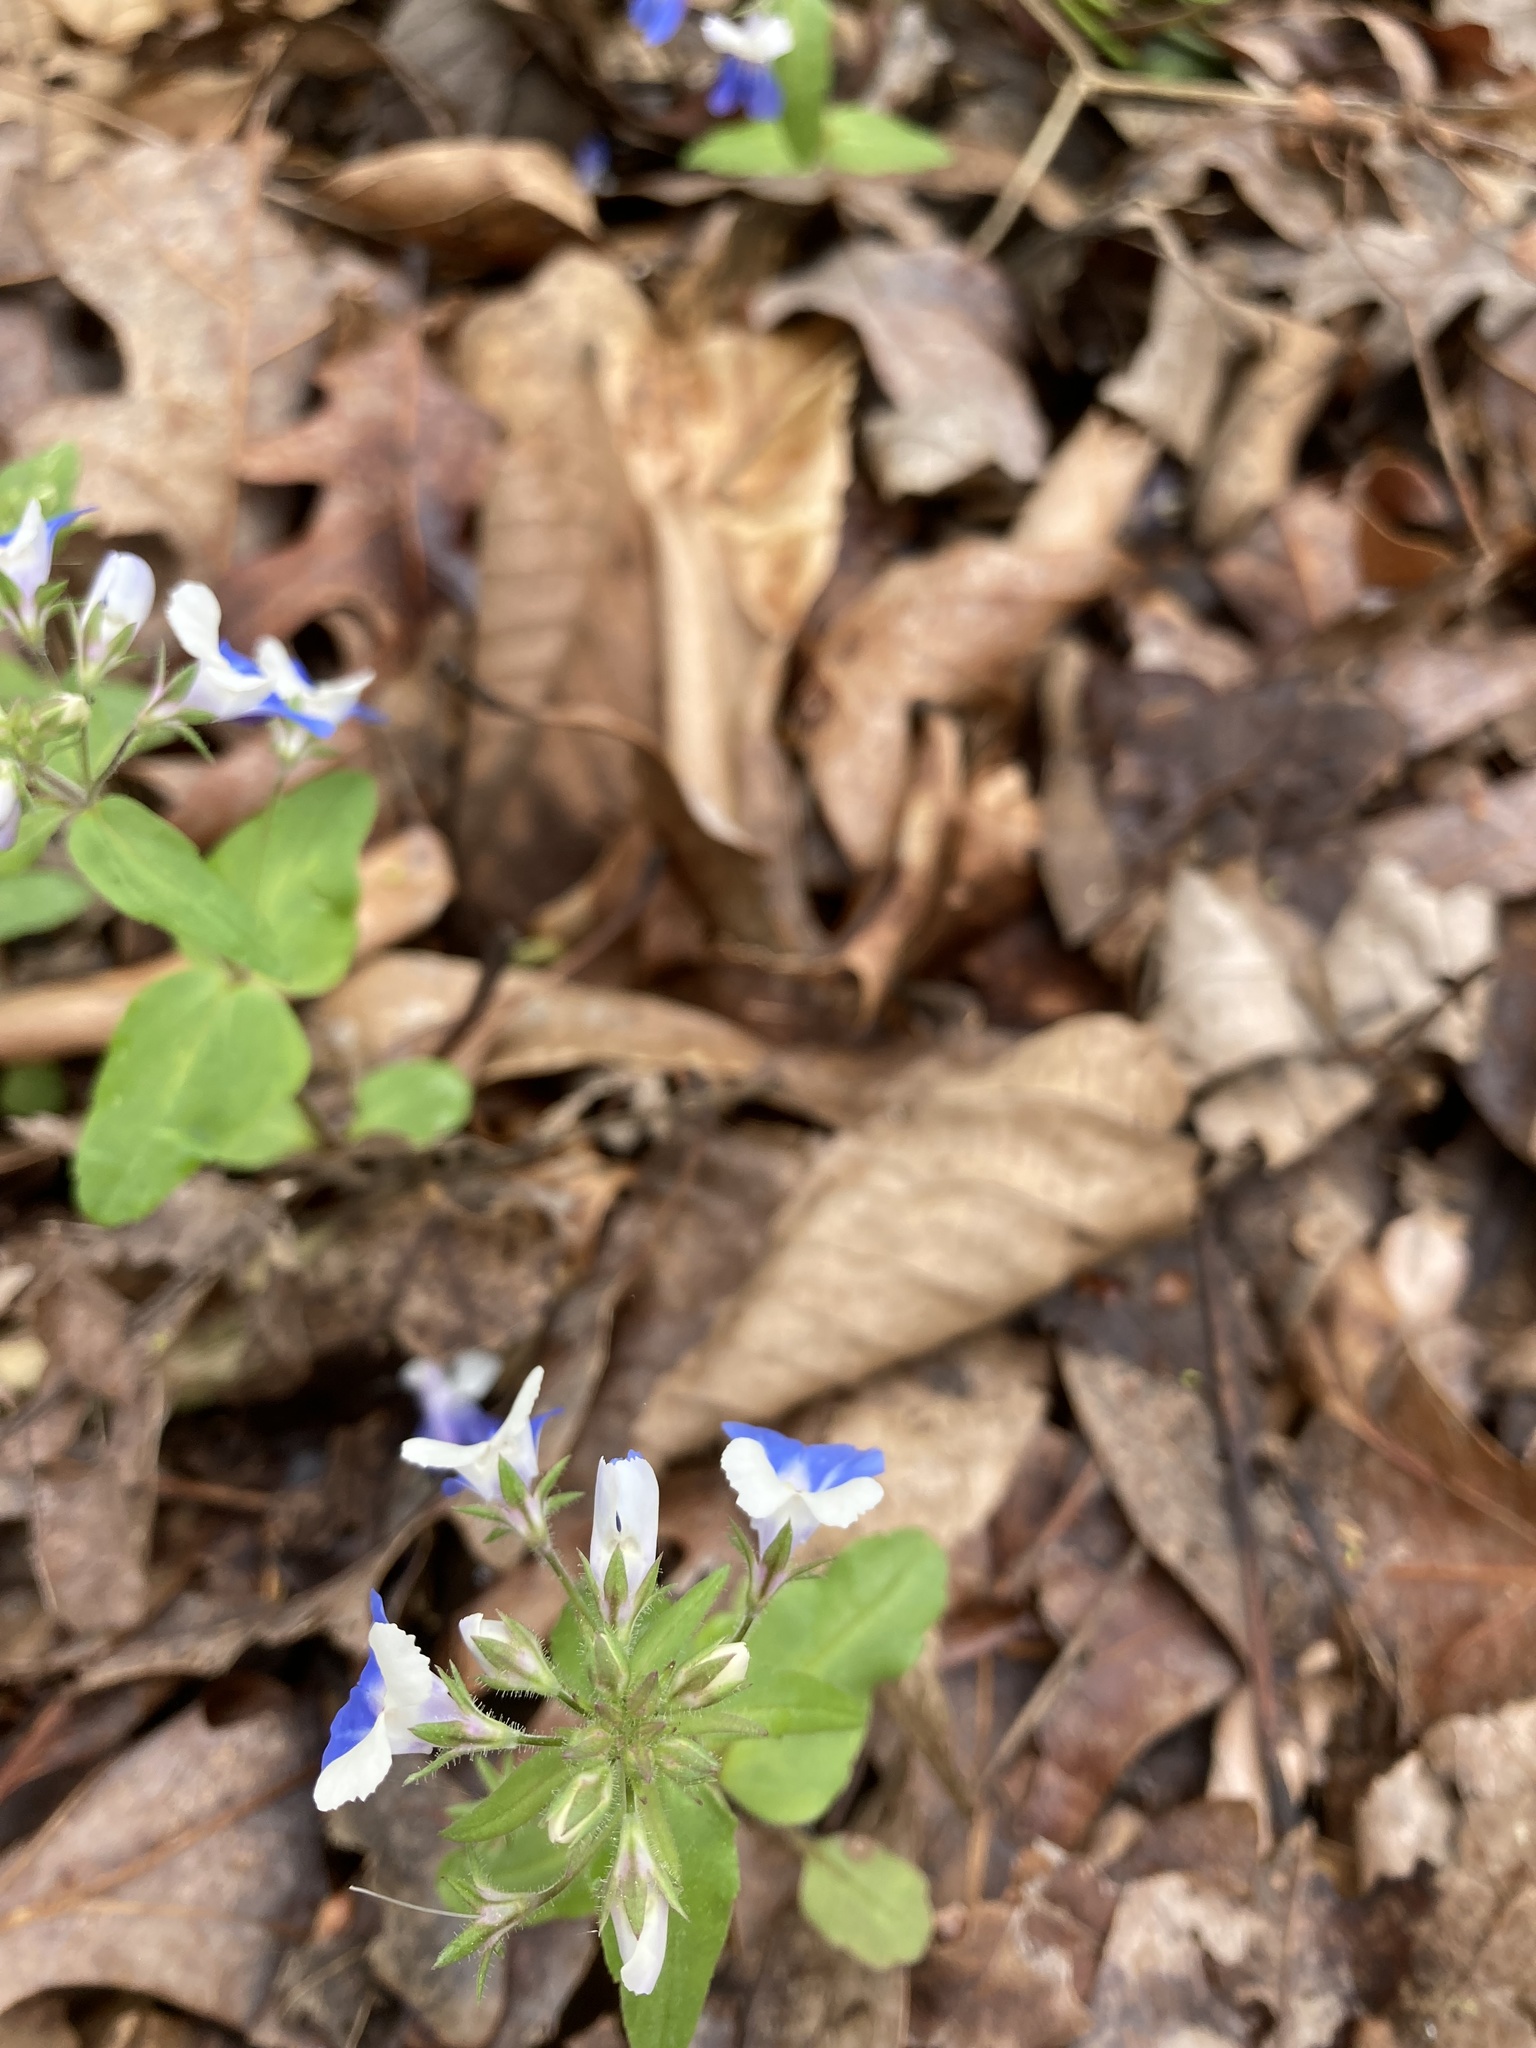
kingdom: Plantae
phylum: Tracheophyta
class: Magnoliopsida
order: Lamiales
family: Plantaginaceae
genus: Collinsia
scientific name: Collinsia verna
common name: Broad-leaved collinsia
